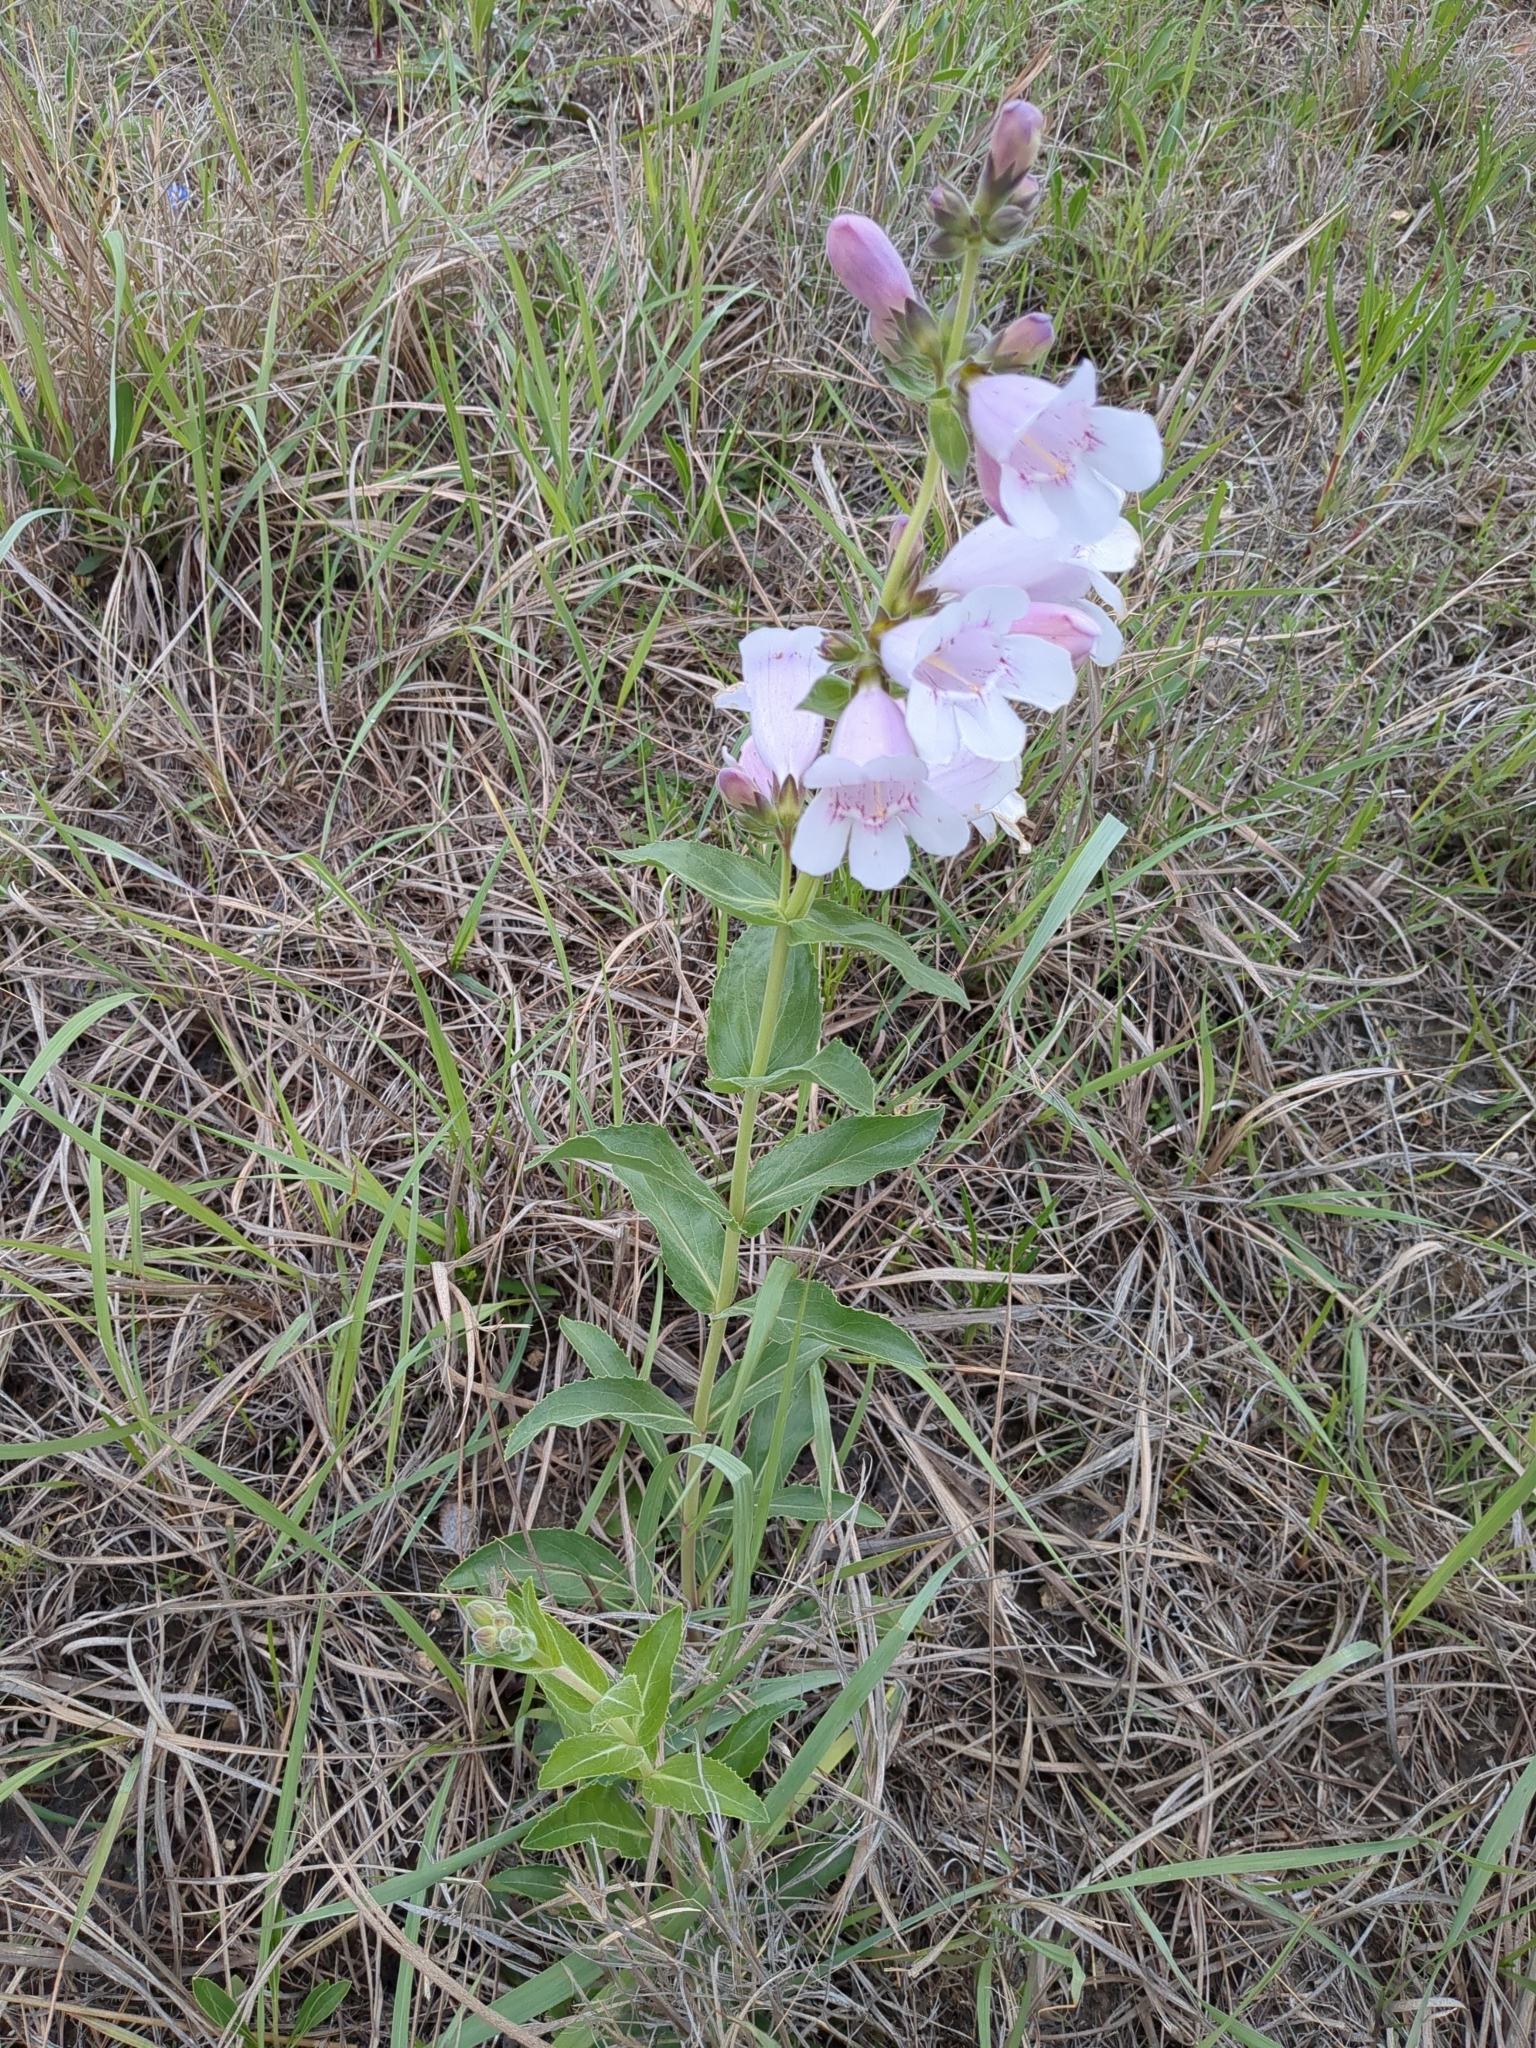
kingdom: Plantae
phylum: Tracheophyta
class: Magnoliopsida
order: Lamiales
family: Plantaginaceae
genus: Penstemon
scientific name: Penstemon cobaea
